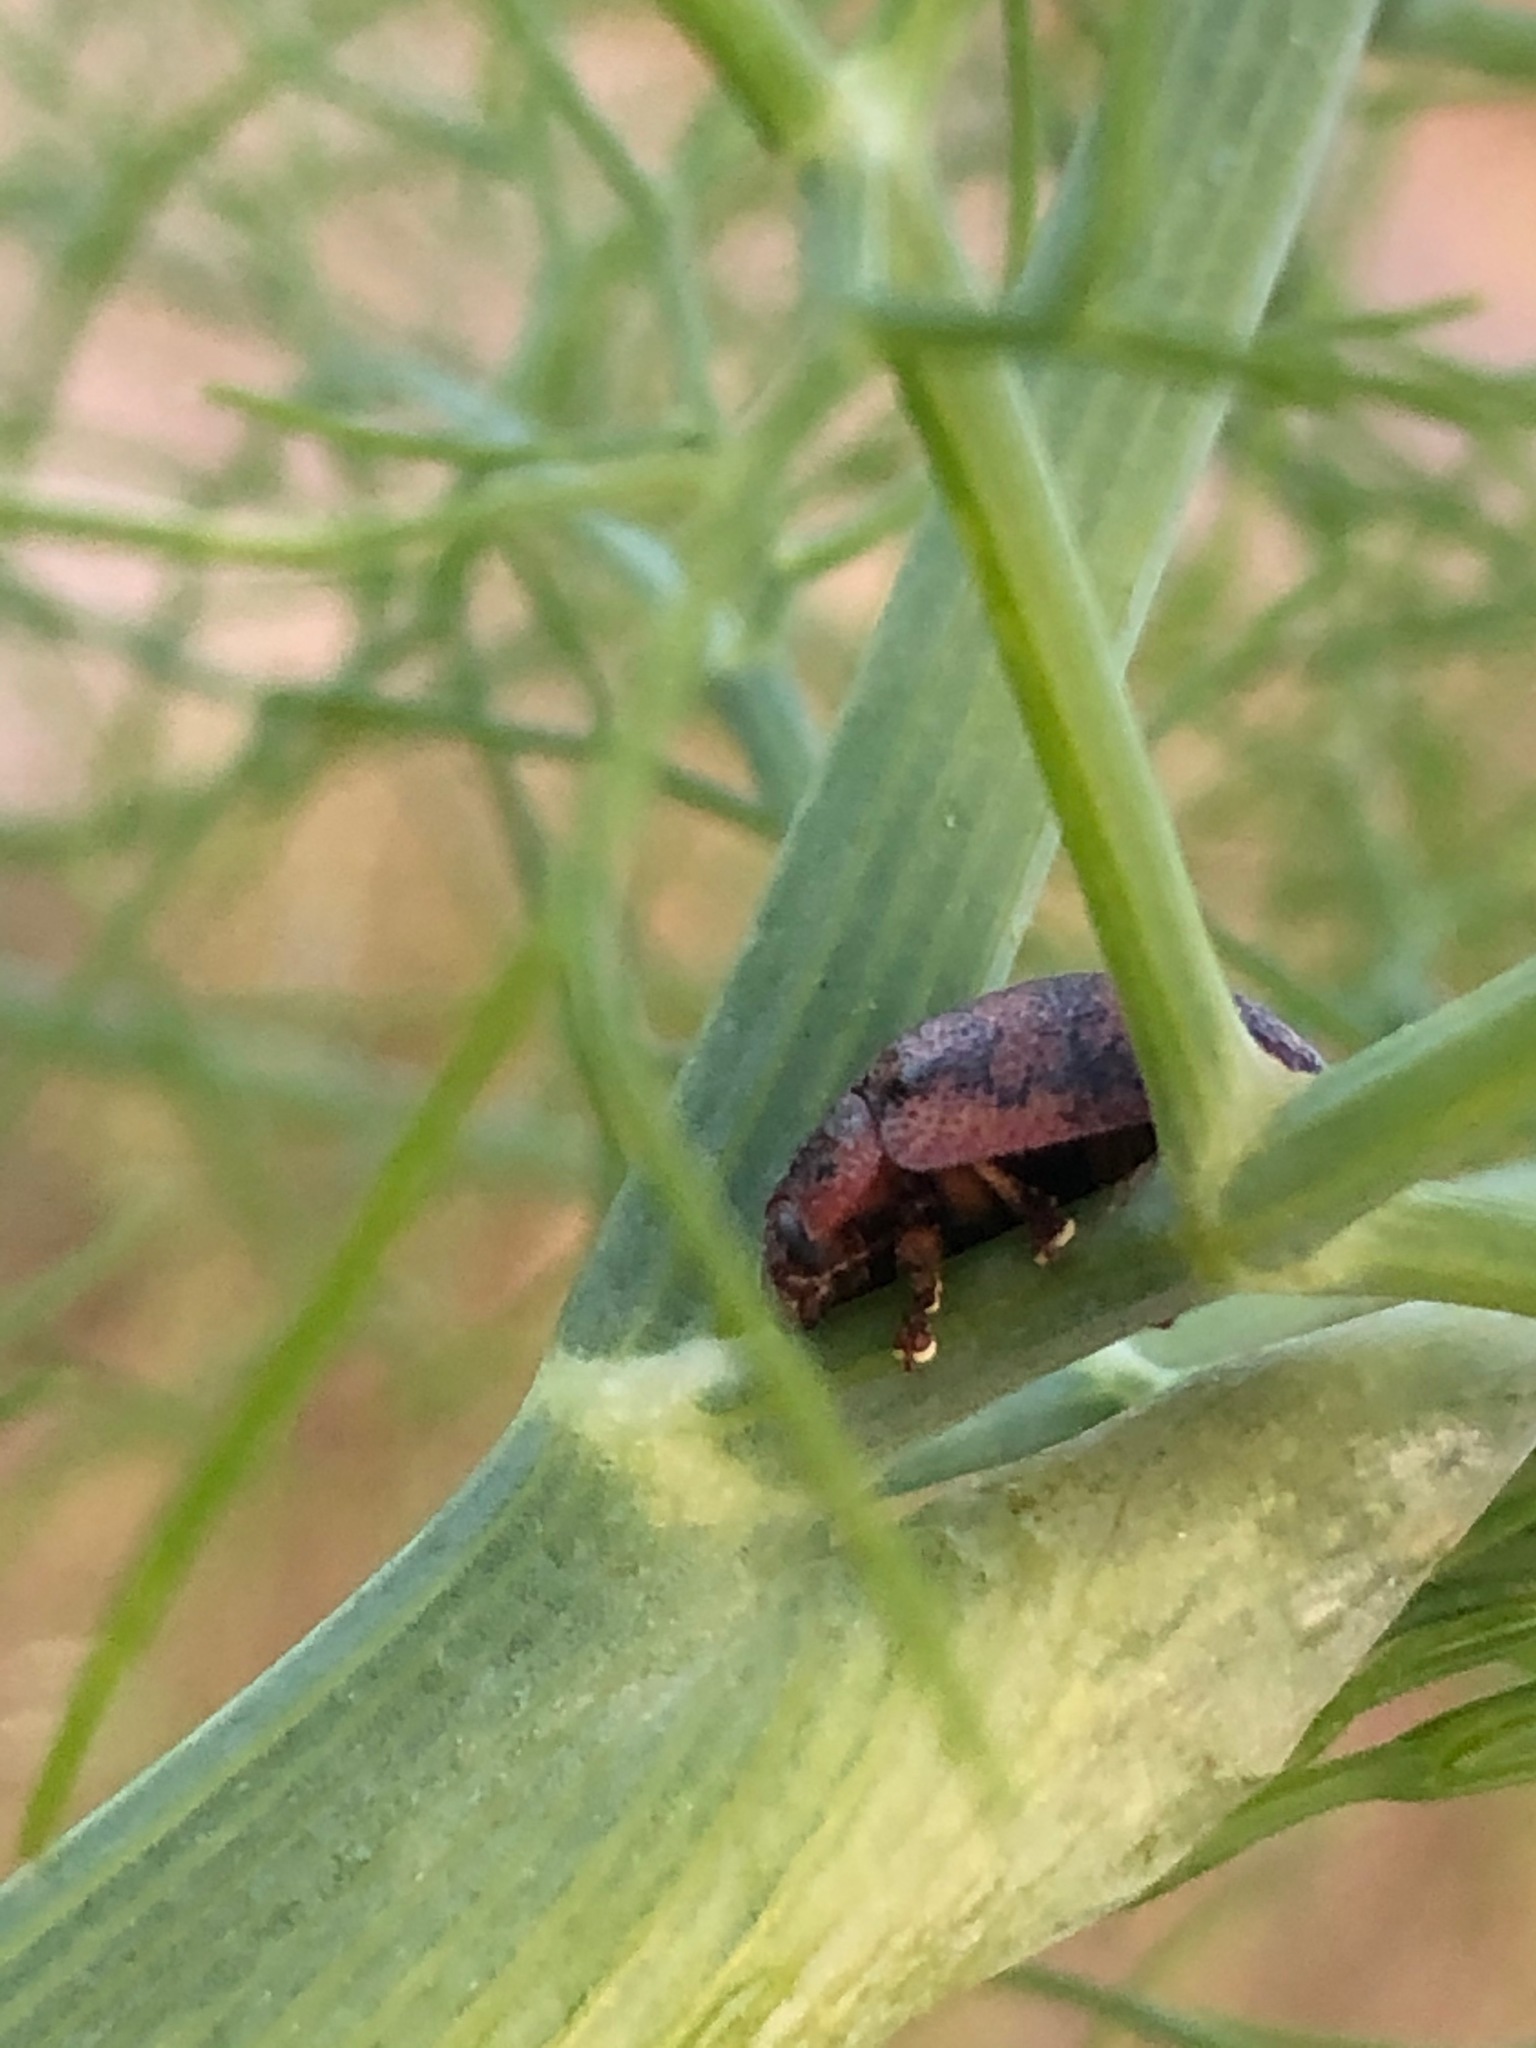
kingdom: Animalia
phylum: Arthropoda
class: Insecta
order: Coleoptera
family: Chrysomelidae
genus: Trachymela
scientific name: Trachymela sloanei
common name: Australian tortoise beetle
